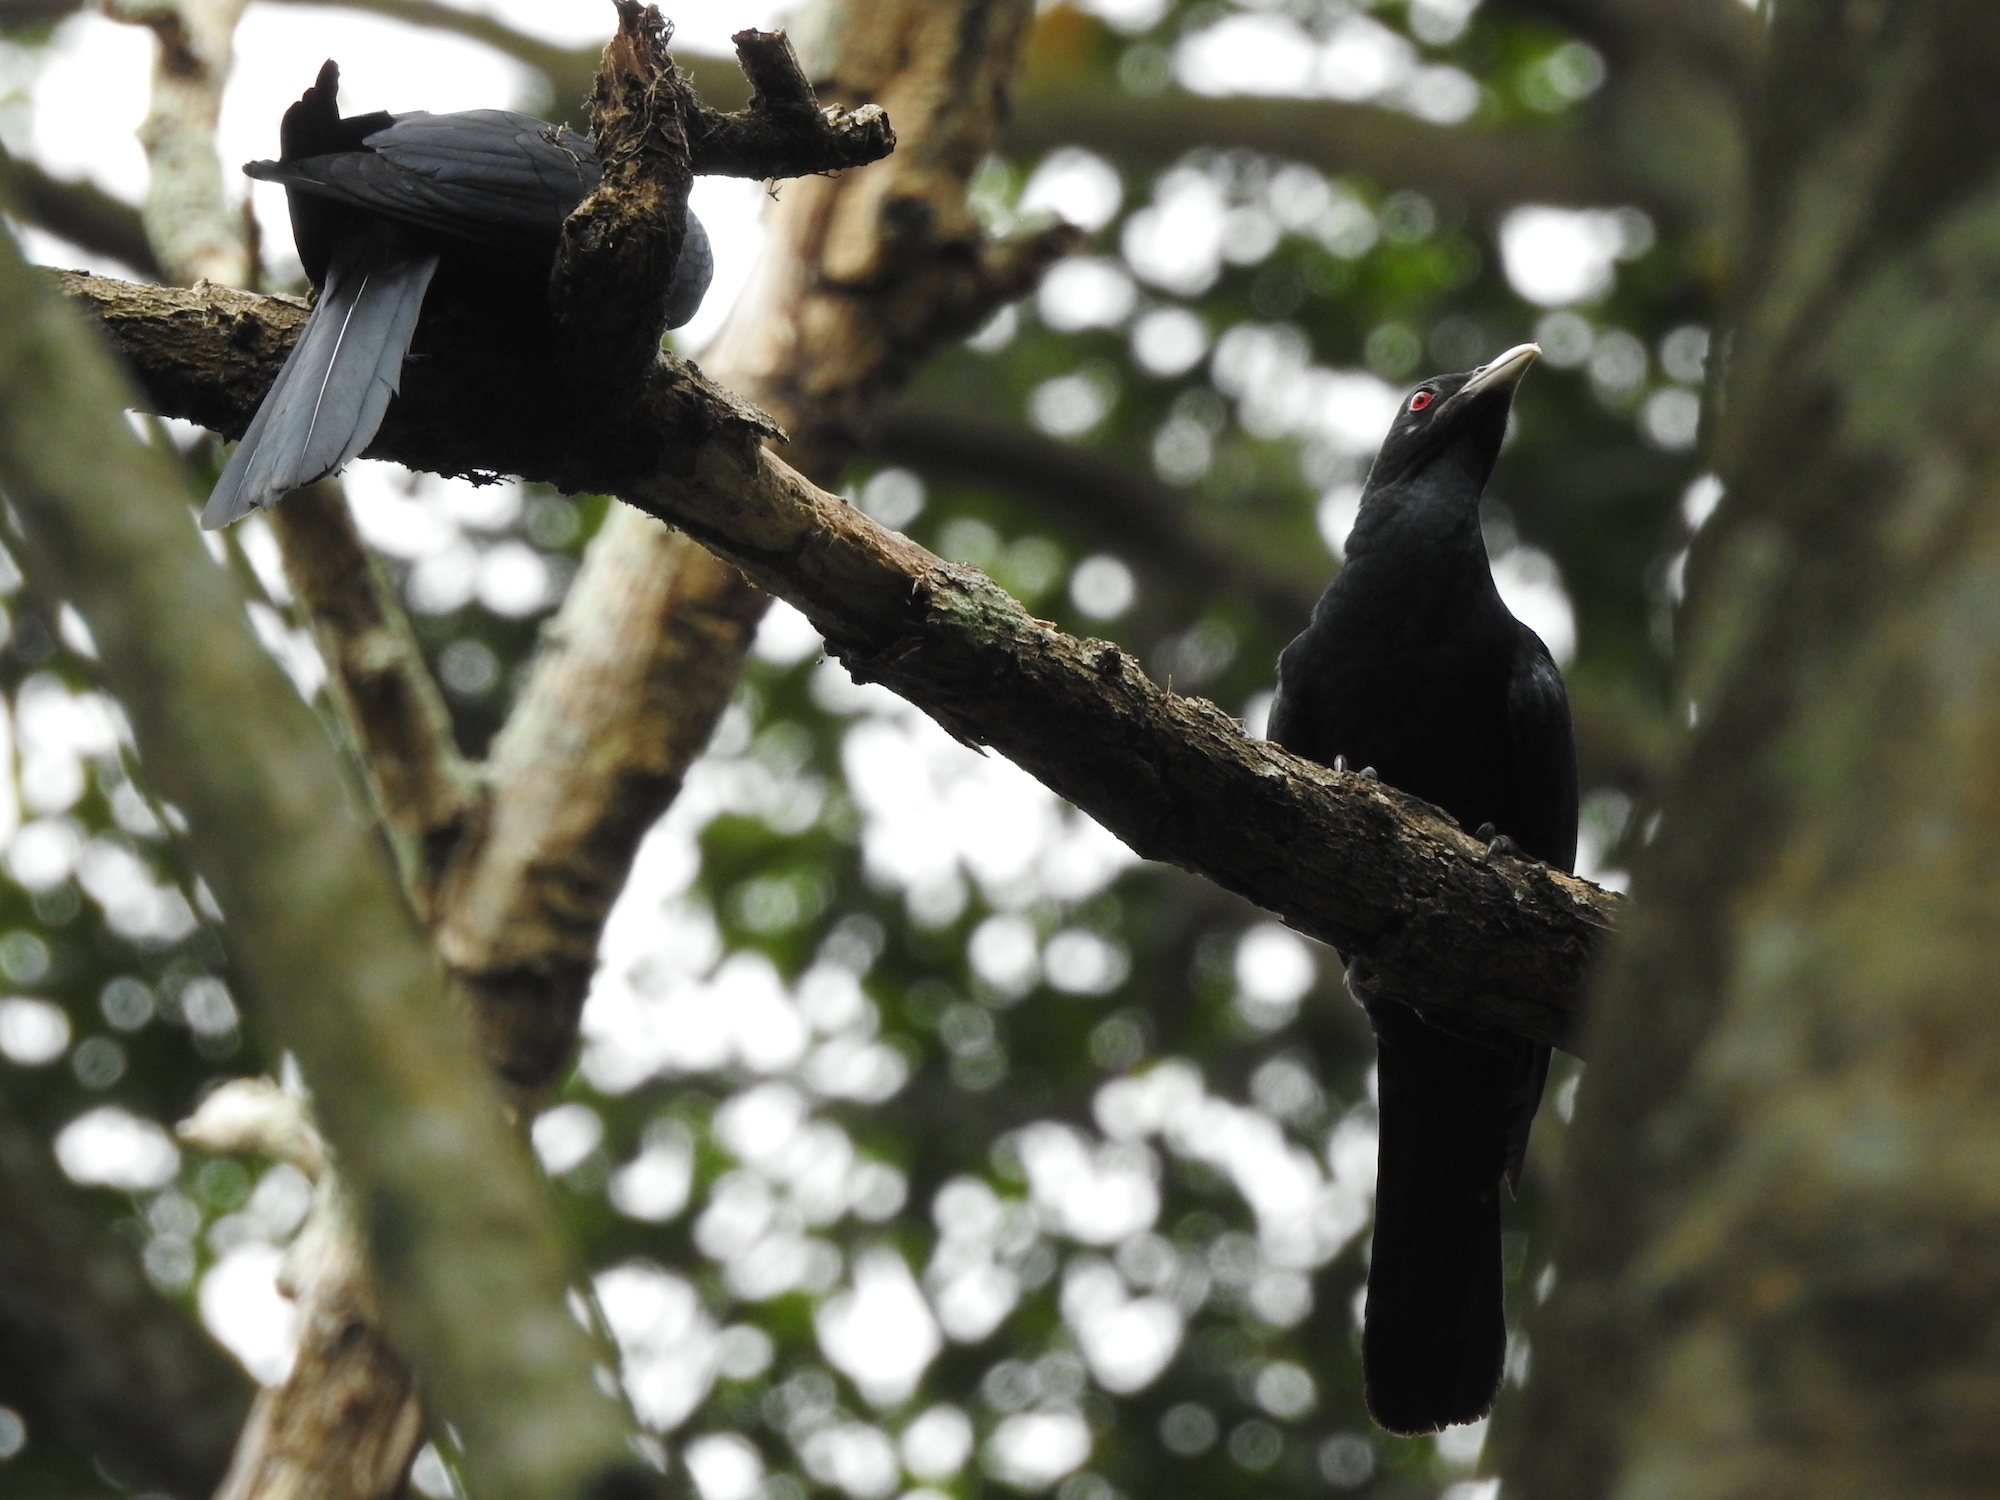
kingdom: Animalia
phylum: Chordata
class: Aves
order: Cuculiformes
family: Cuculidae
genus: Eudynamys
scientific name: Eudynamys scolopaceus
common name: Asian koel
